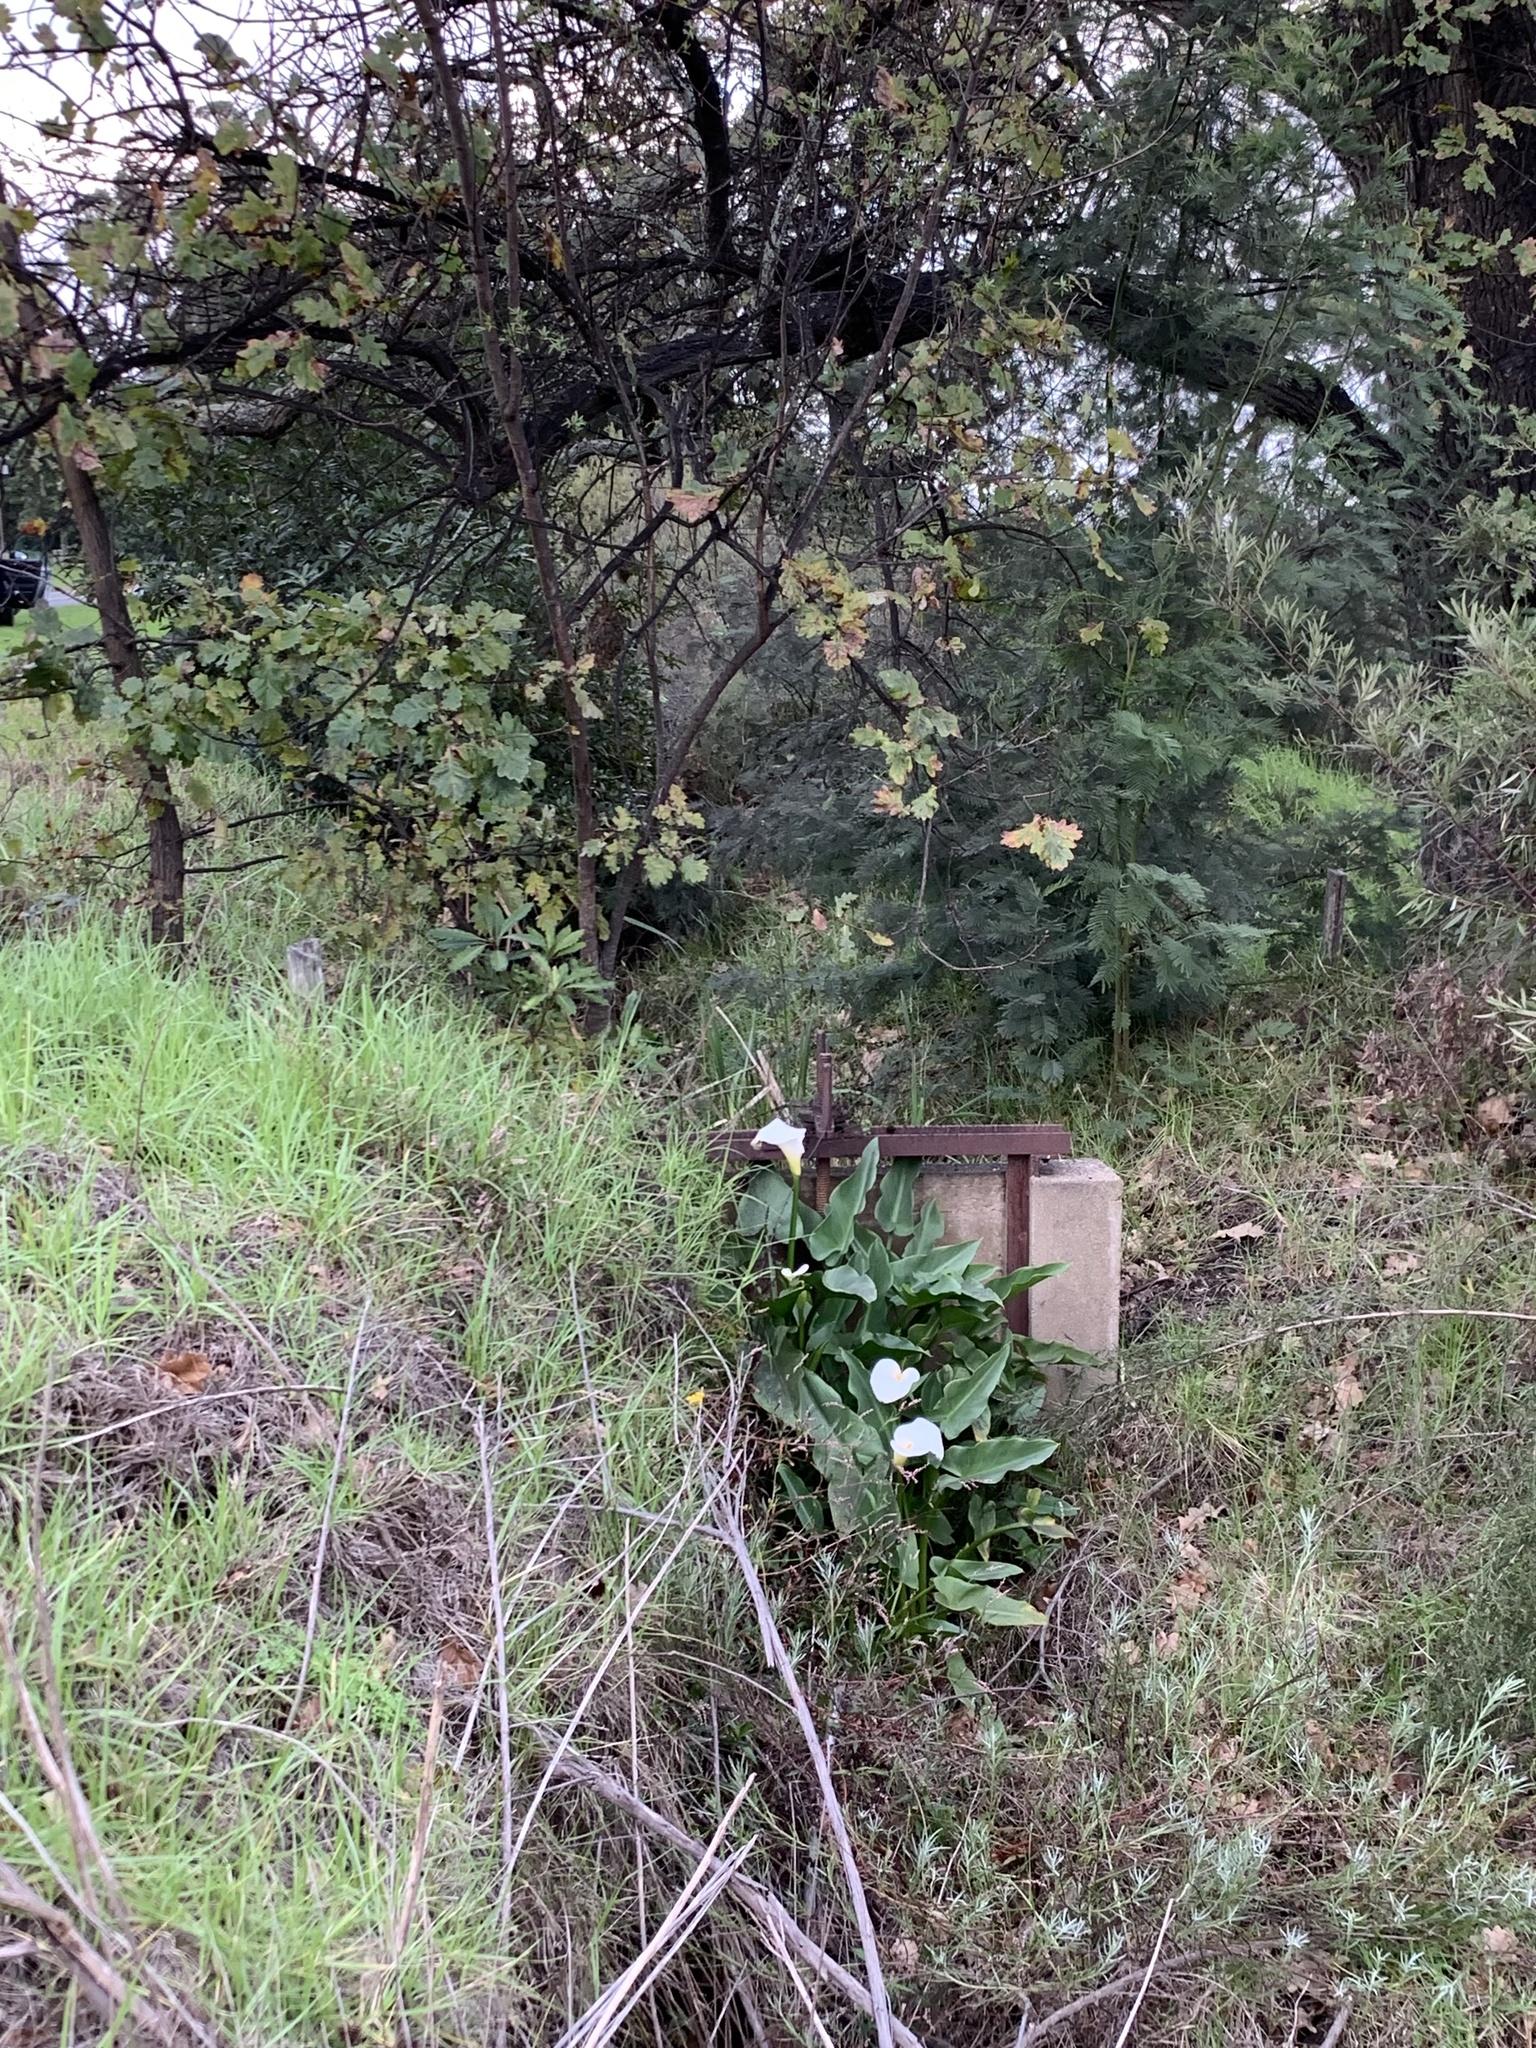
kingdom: Plantae
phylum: Tracheophyta
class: Liliopsida
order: Alismatales
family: Araceae
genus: Zantedeschia
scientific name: Zantedeschia aethiopica
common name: Altar-lily
